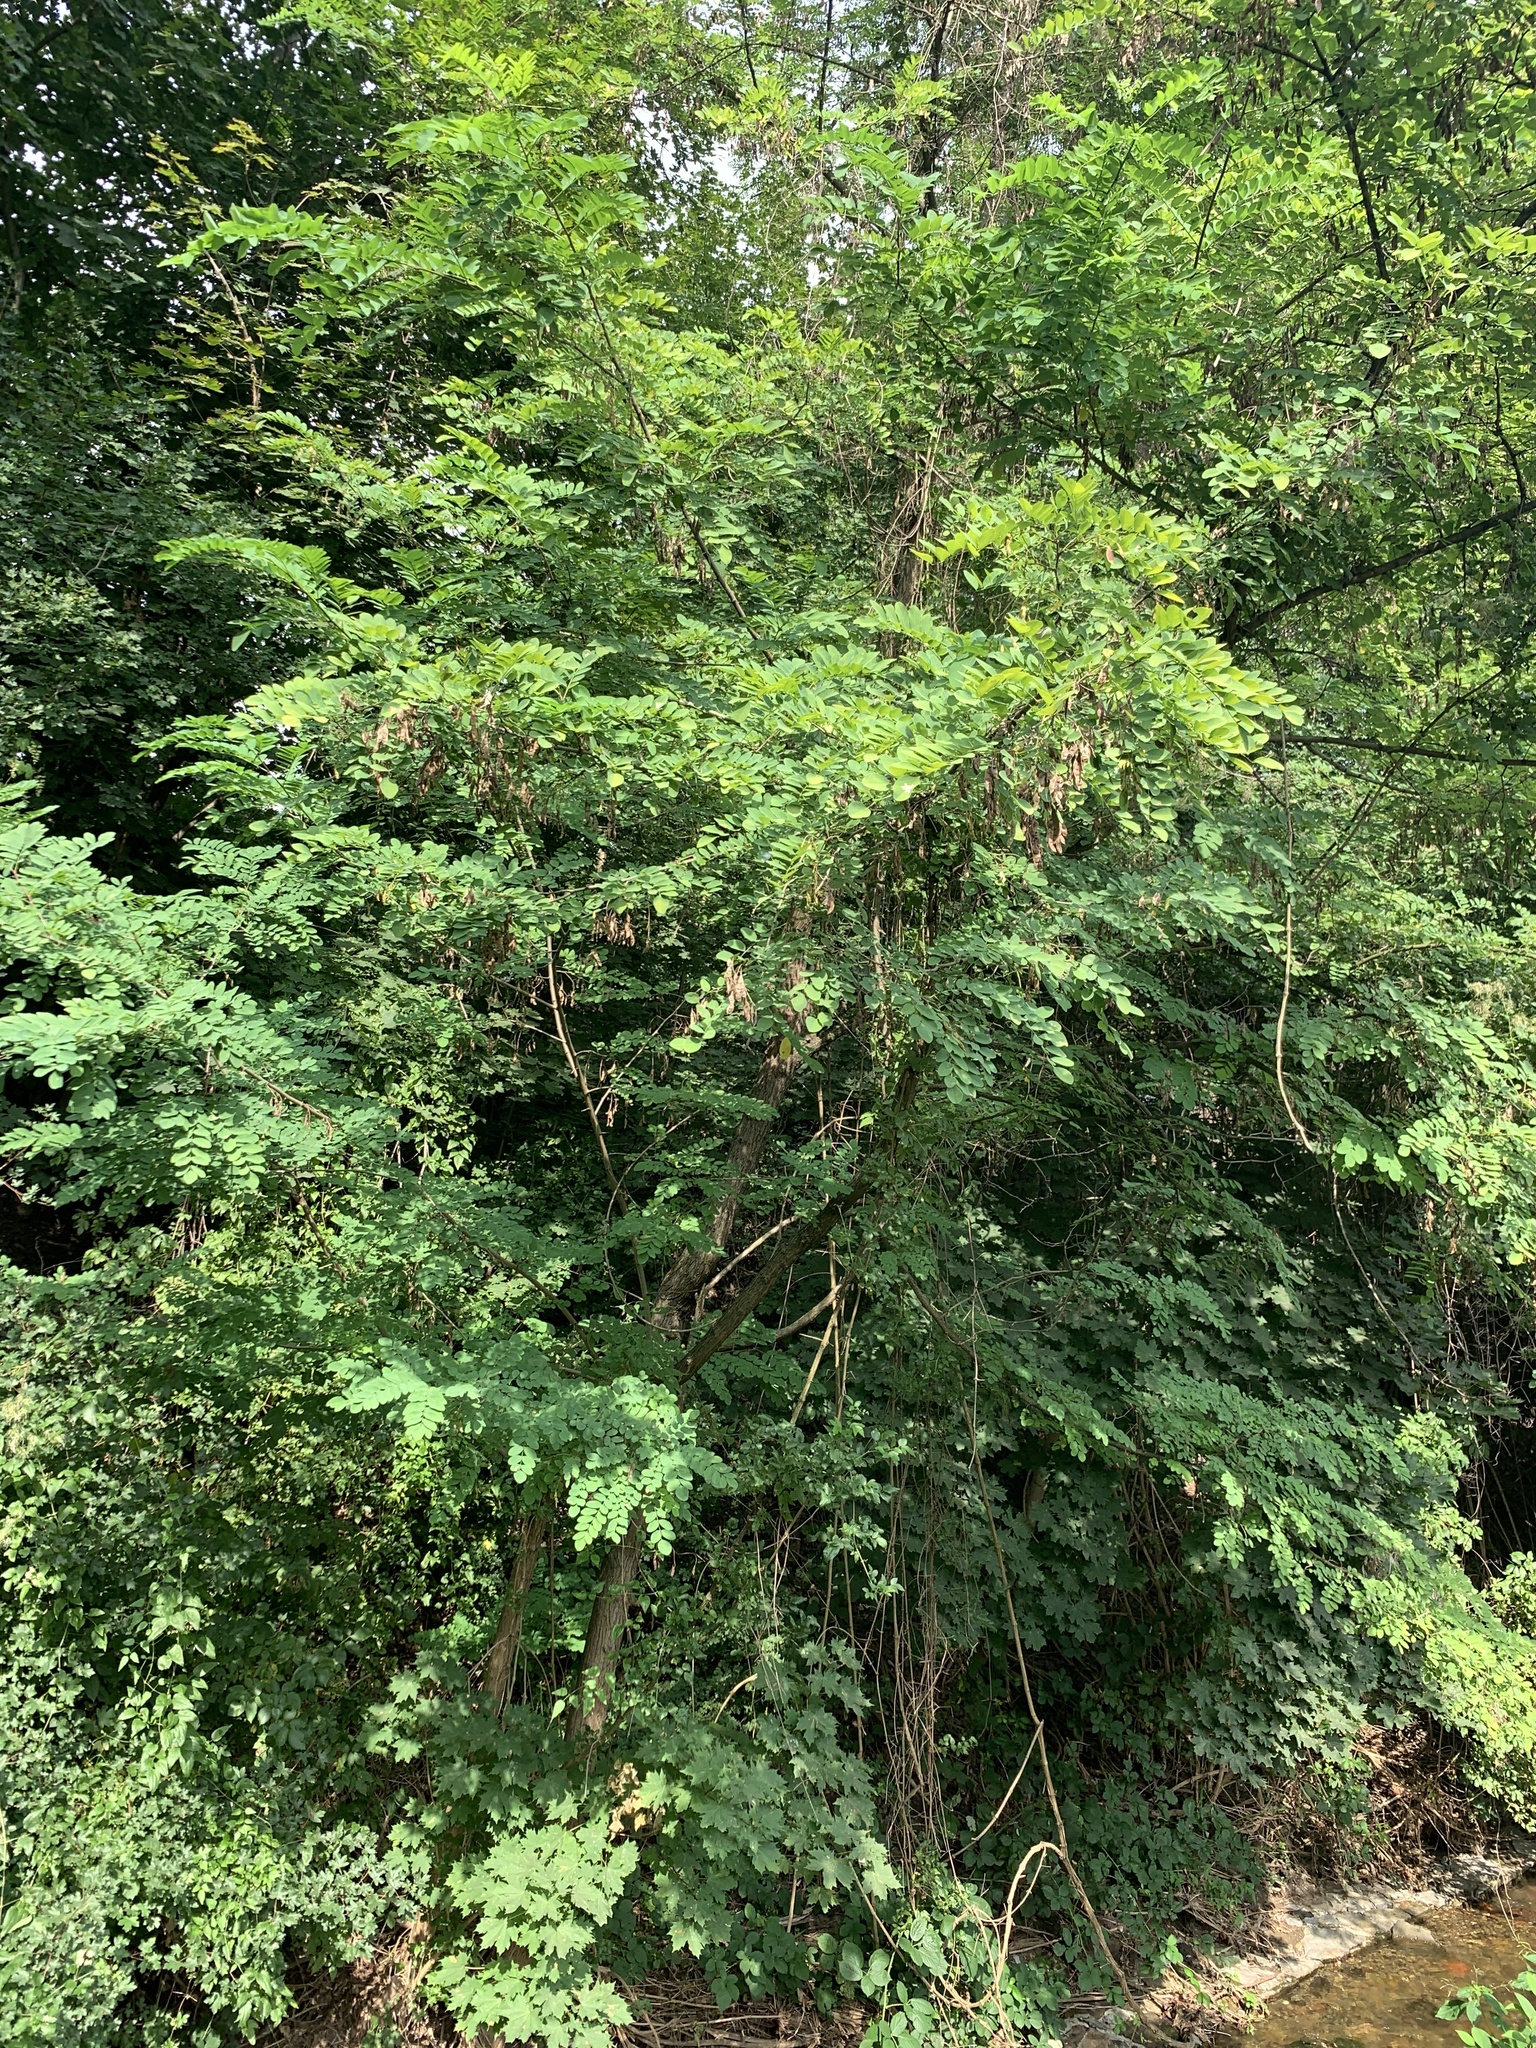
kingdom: Plantae
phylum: Tracheophyta
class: Magnoliopsida
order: Fabales
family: Fabaceae
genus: Robinia
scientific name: Robinia pseudoacacia
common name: Black locust
